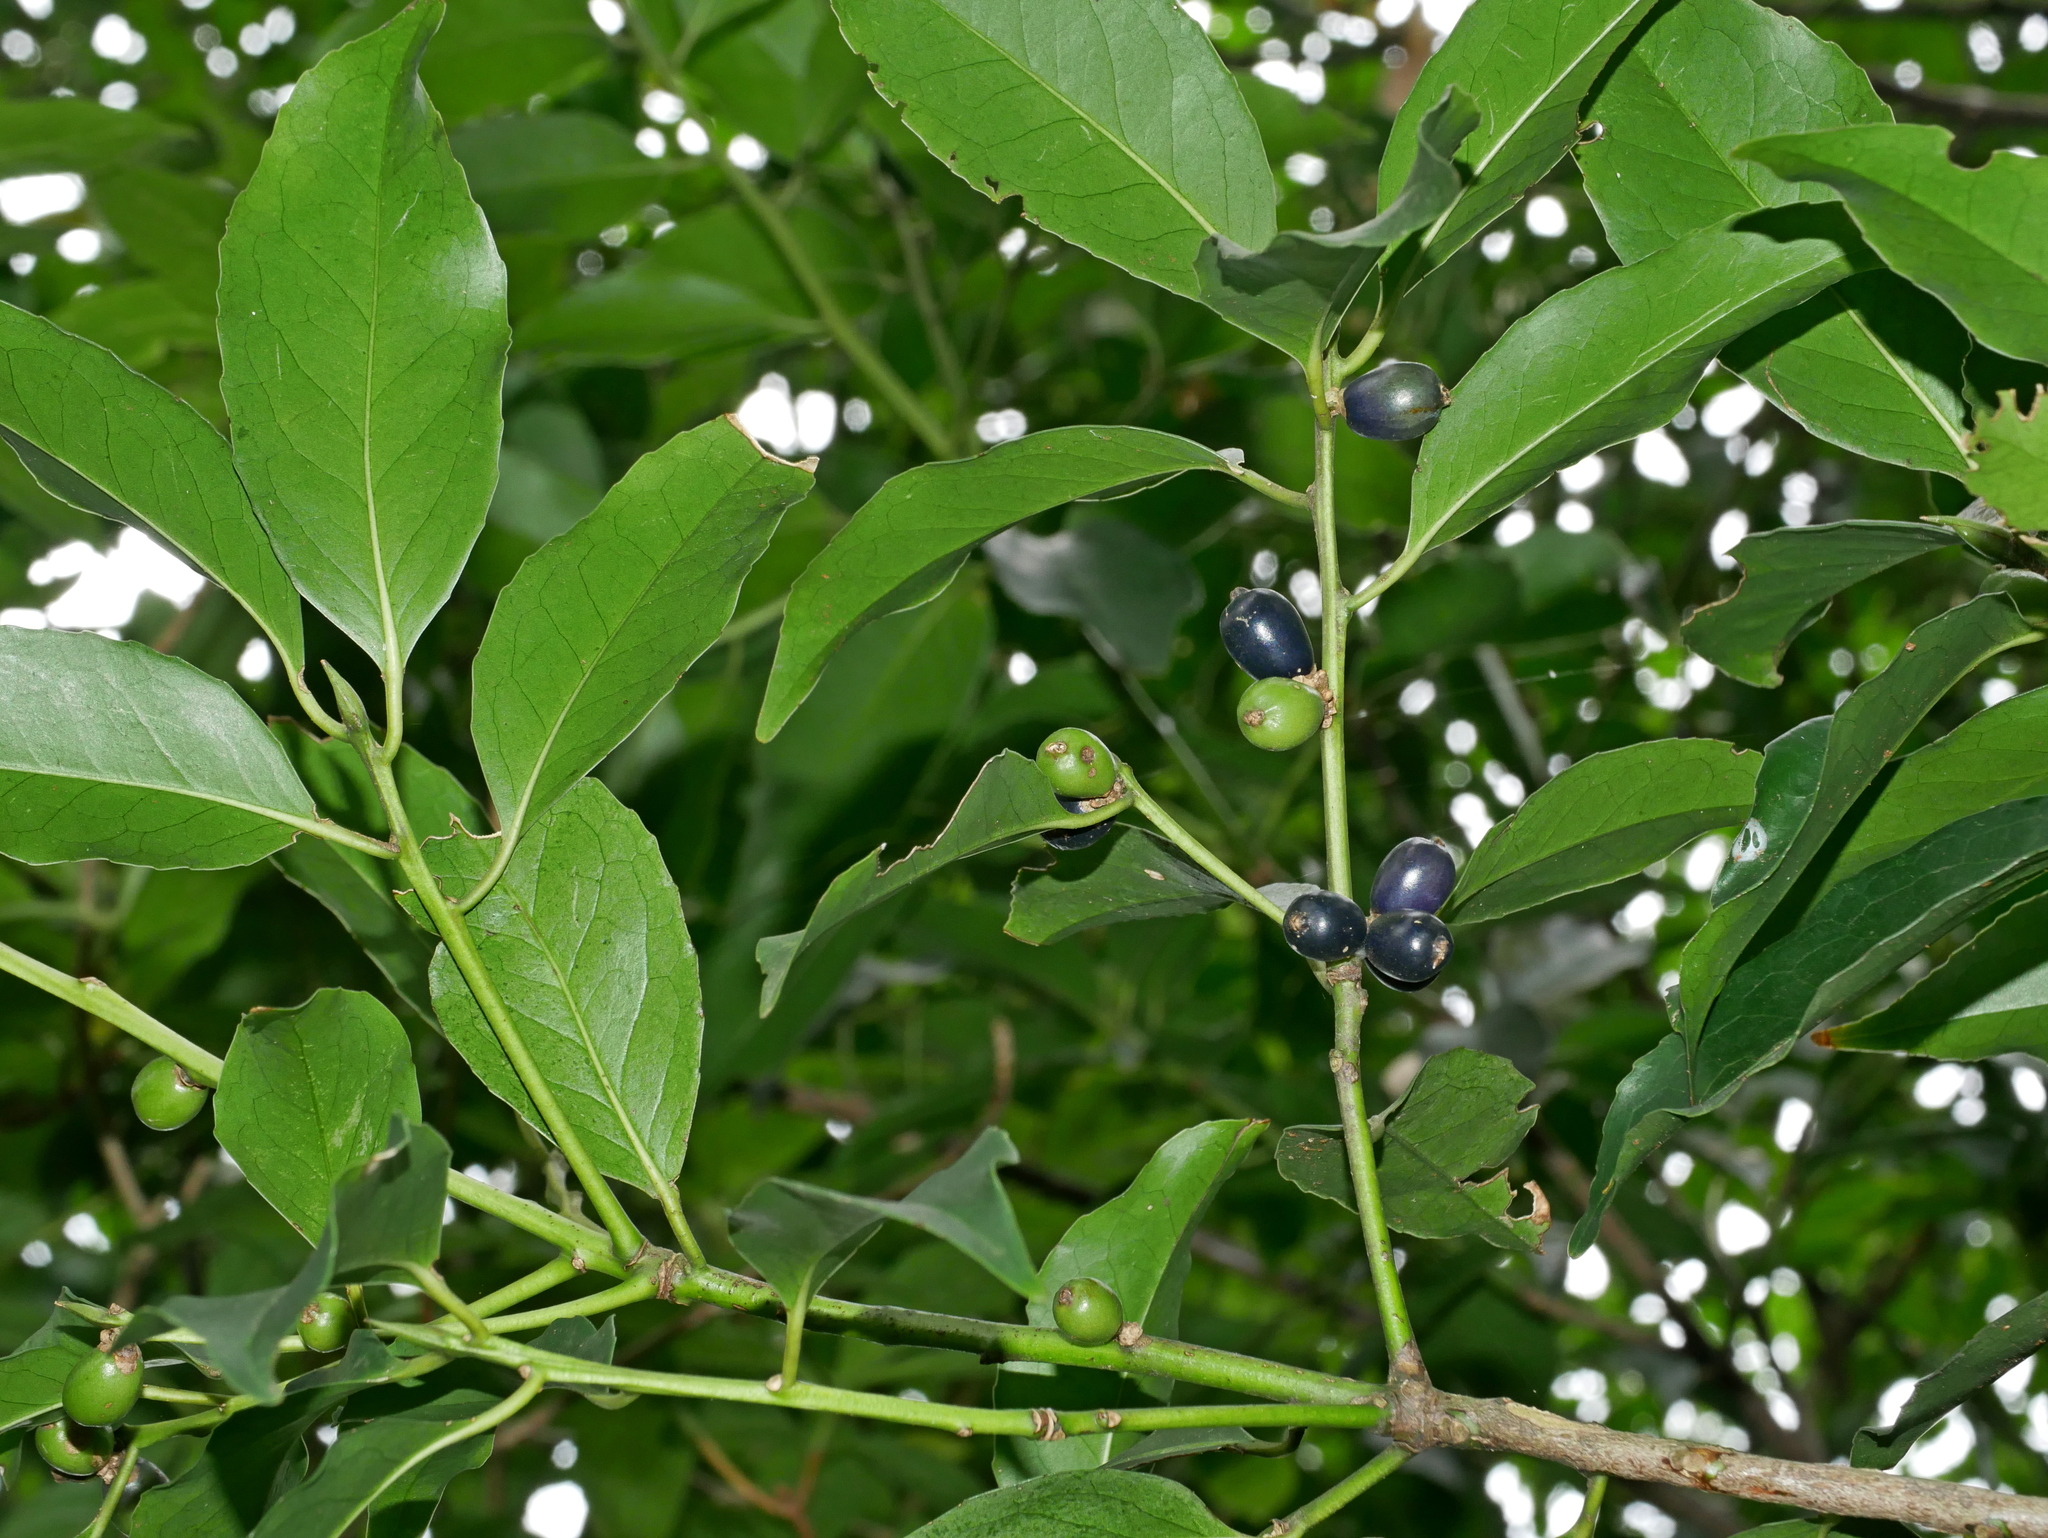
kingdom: Plantae
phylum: Tracheophyta
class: Magnoliopsida
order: Ericales
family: Symplocaceae
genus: Symplocos
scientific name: Symplocos setchuensis
